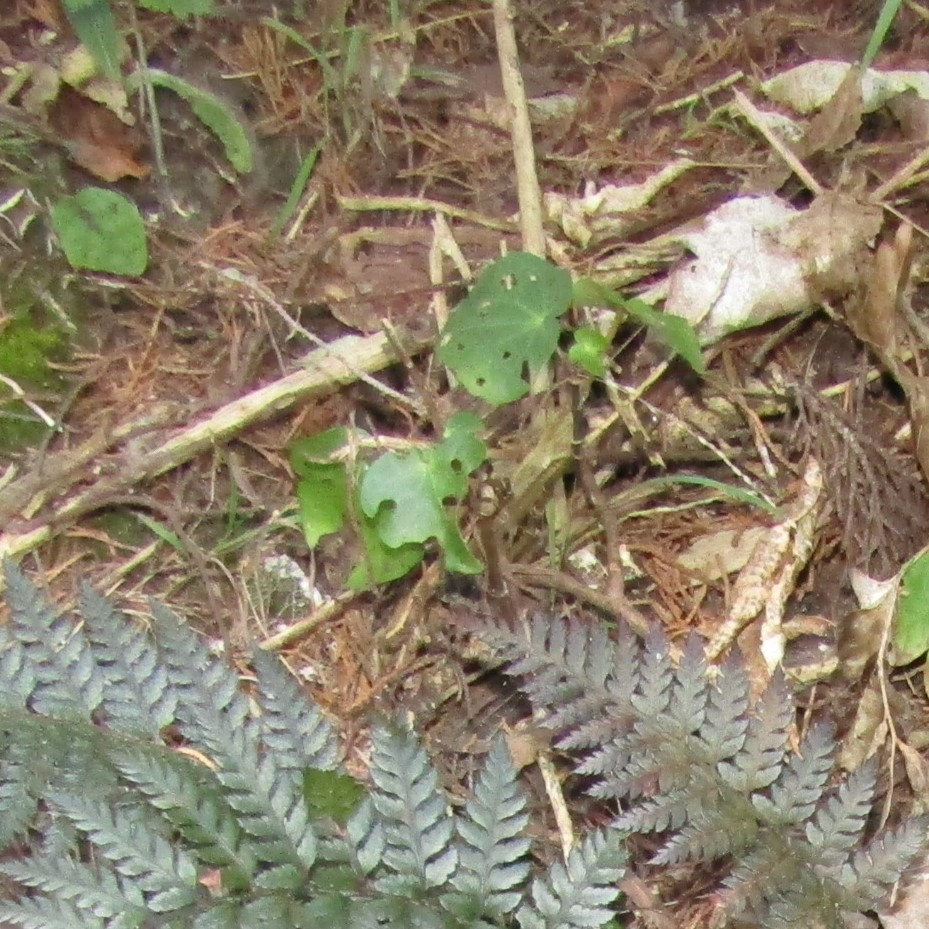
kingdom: Plantae
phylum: Tracheophyta
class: Magnoliopsida
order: Piperales
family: Piperaceae
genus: Macropiper
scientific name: Macropiper excelsum
